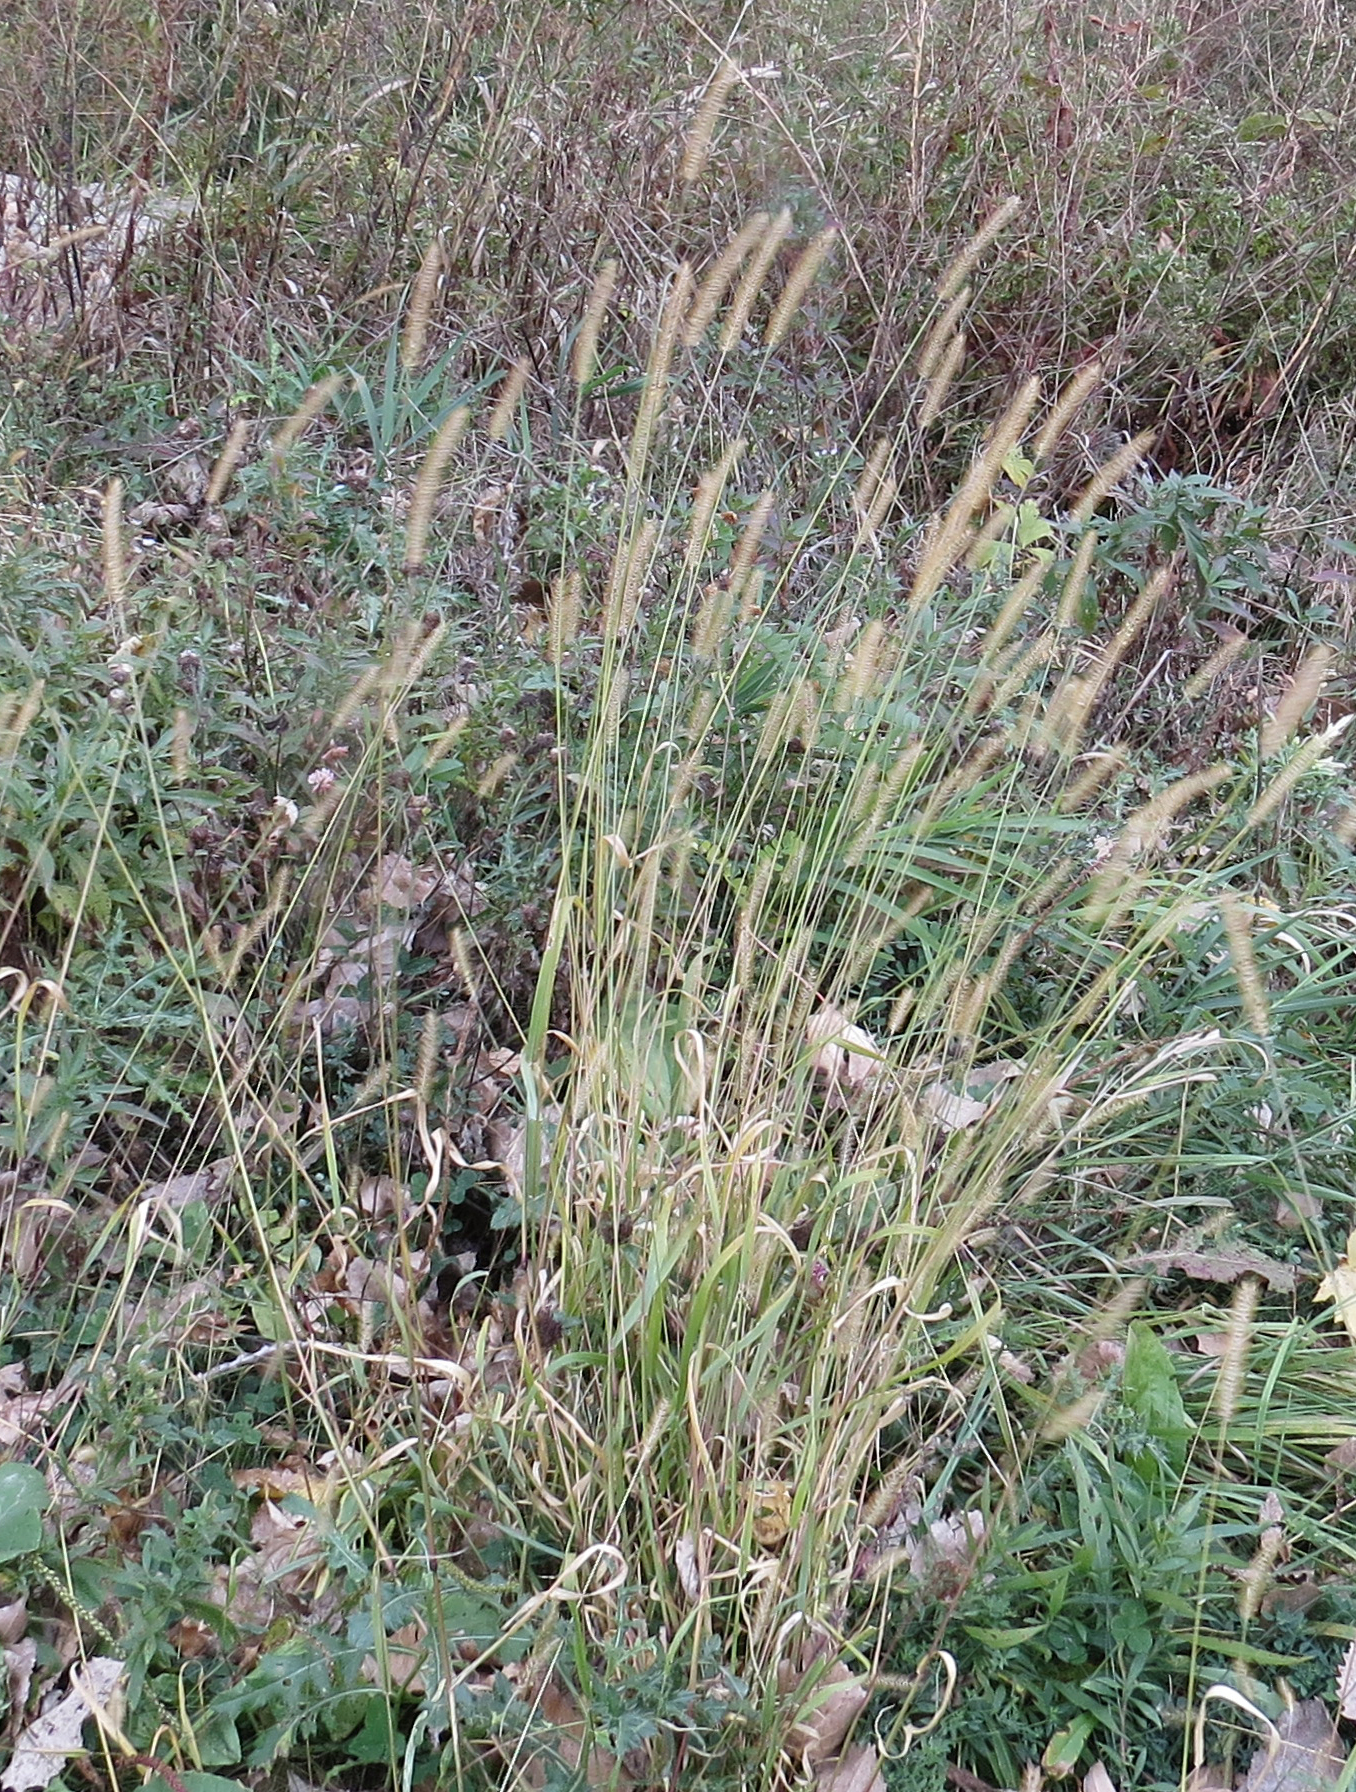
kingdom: Plantae
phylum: Tracheophyta
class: Liliopsida
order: Poales
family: Poaceae
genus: Setaria
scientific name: Setaria pumila
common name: Yellow bristle-grass
